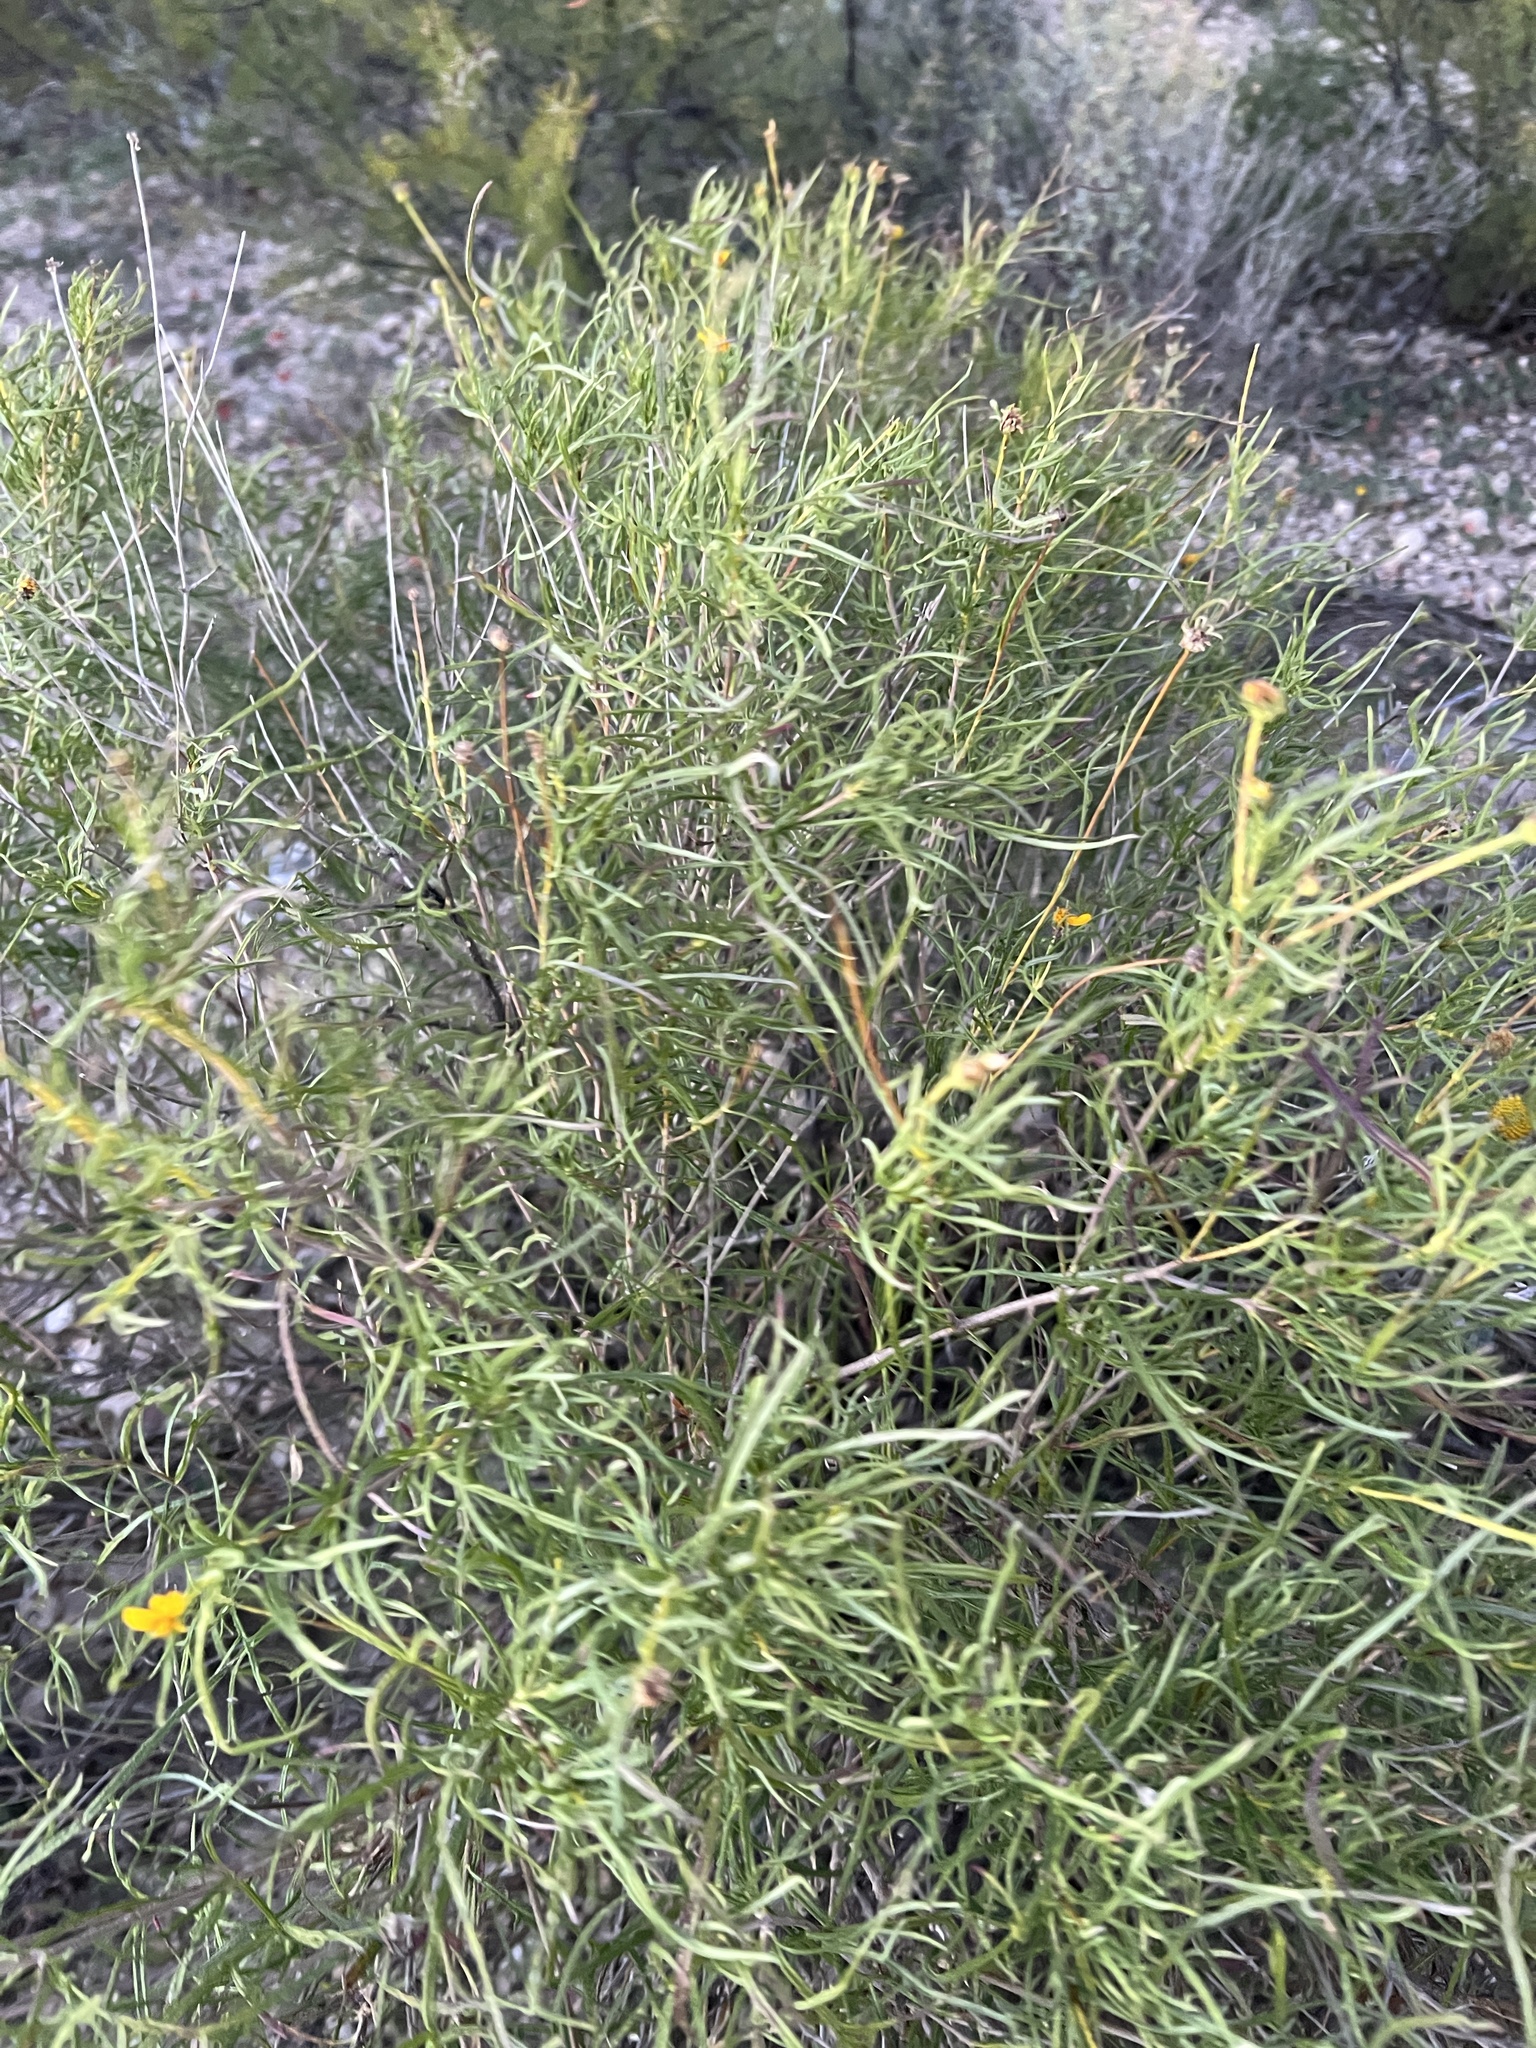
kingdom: Plantae
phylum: Tracheophyta
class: Magnoliopsida
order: Asterales
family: Asteraceae
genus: Sidneya
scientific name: Sidneya tenuifolia
